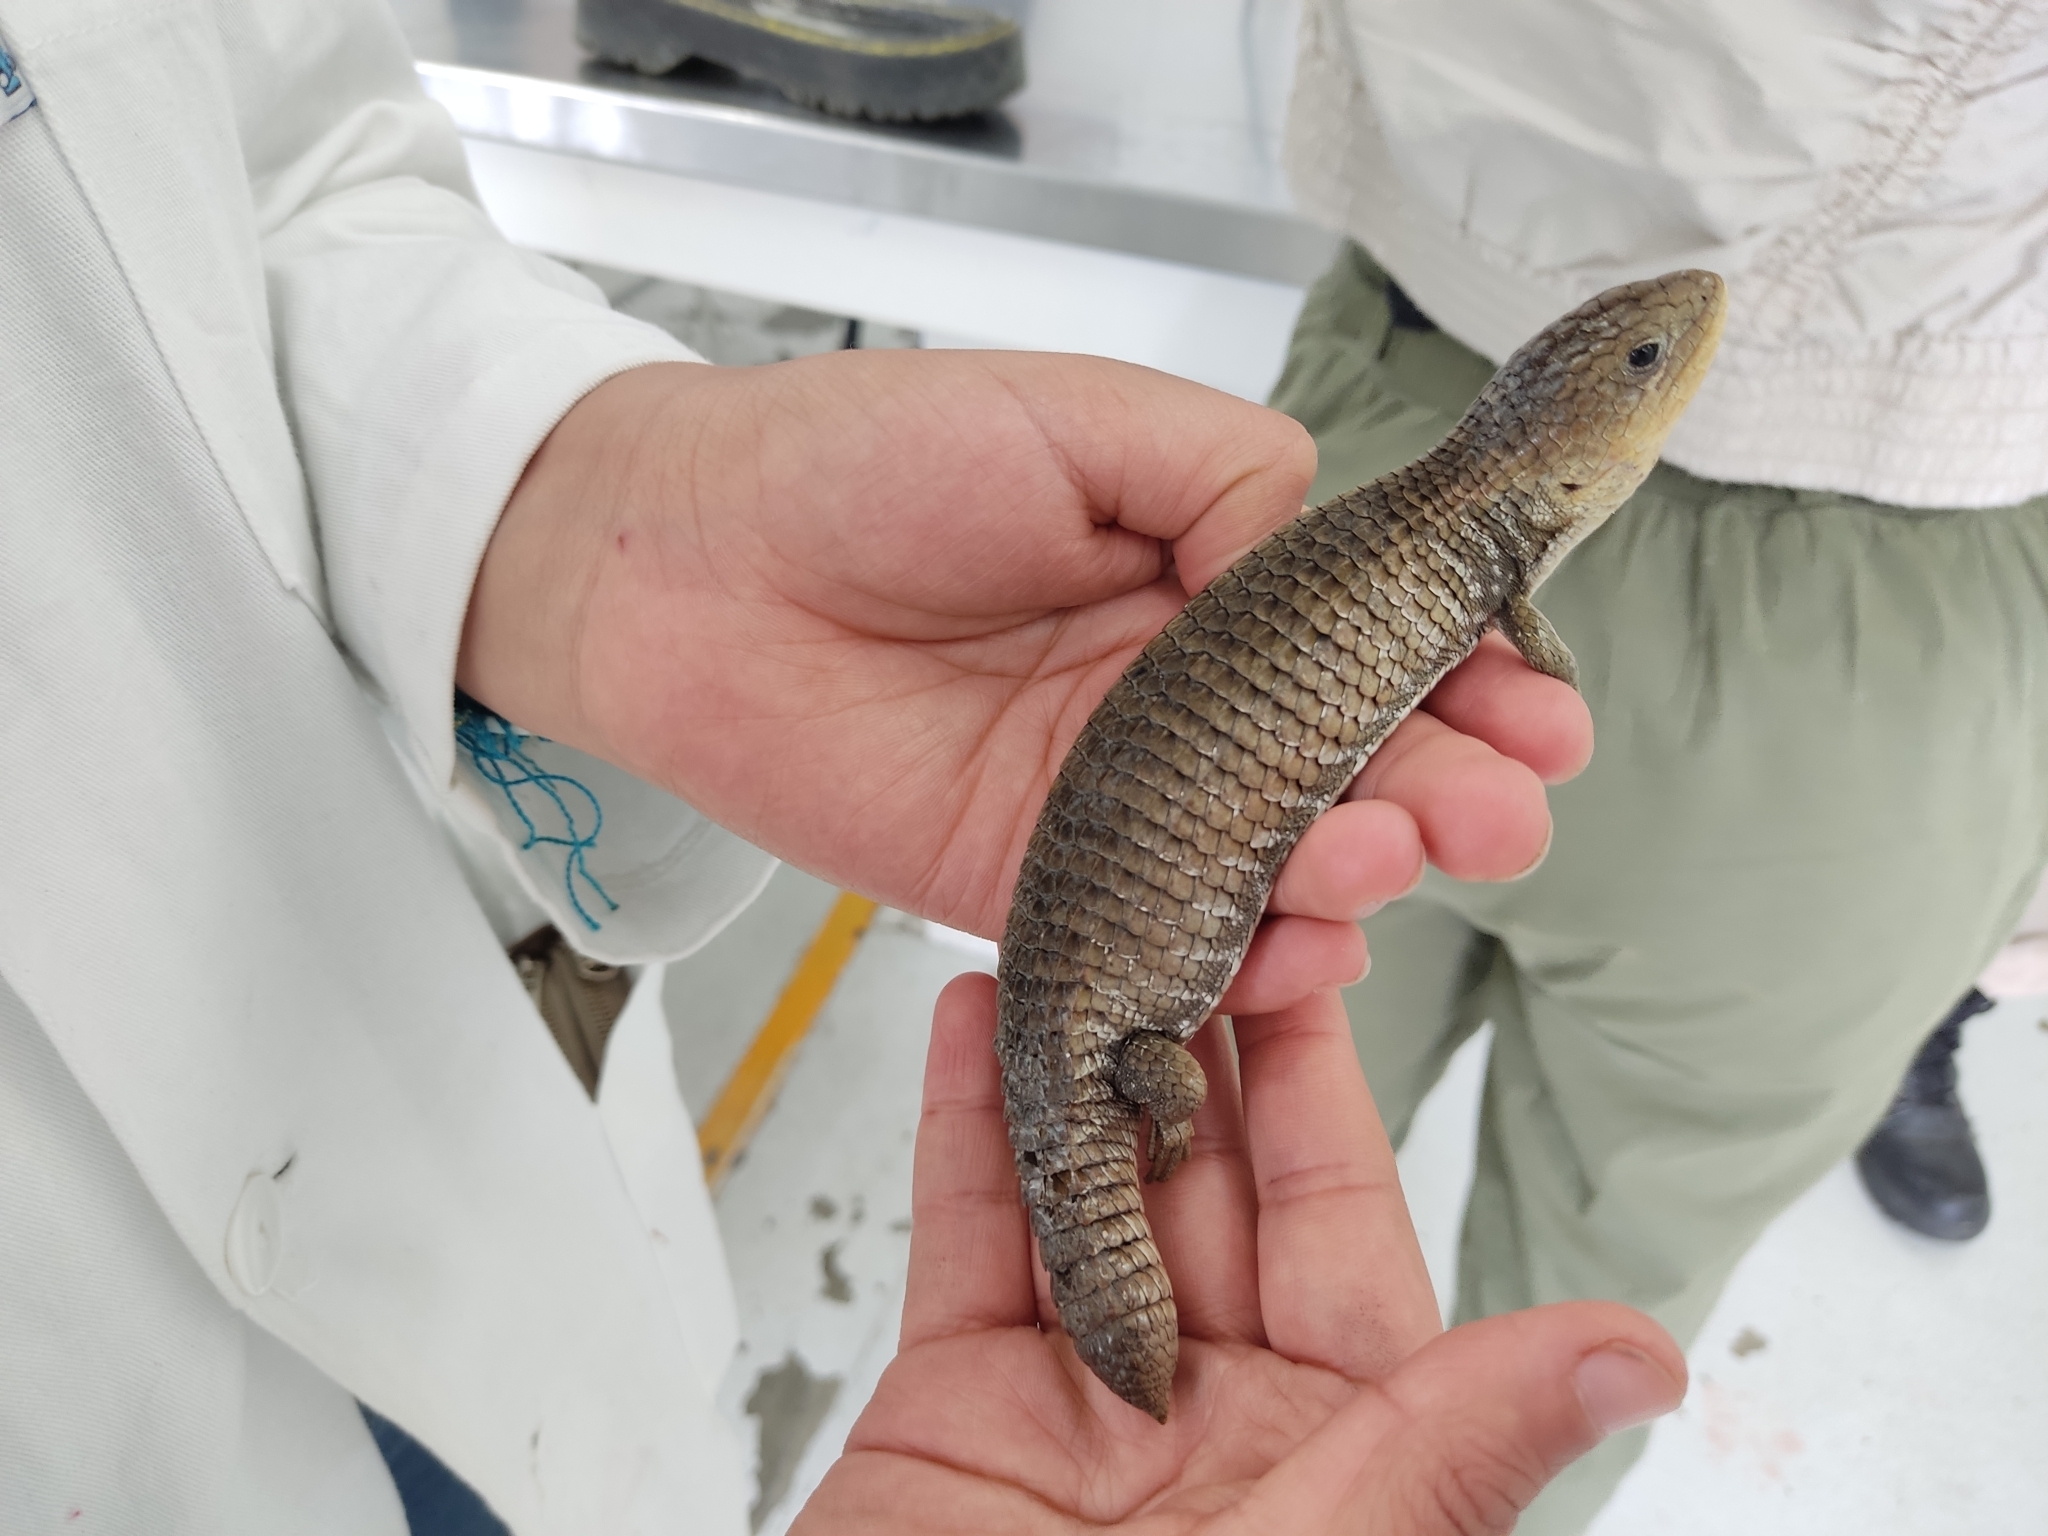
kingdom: Animalia
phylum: Chordata
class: Squamata
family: Anguidae
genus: Barisia
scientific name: Barisia imbricata
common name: Imbricate alligator lizard
